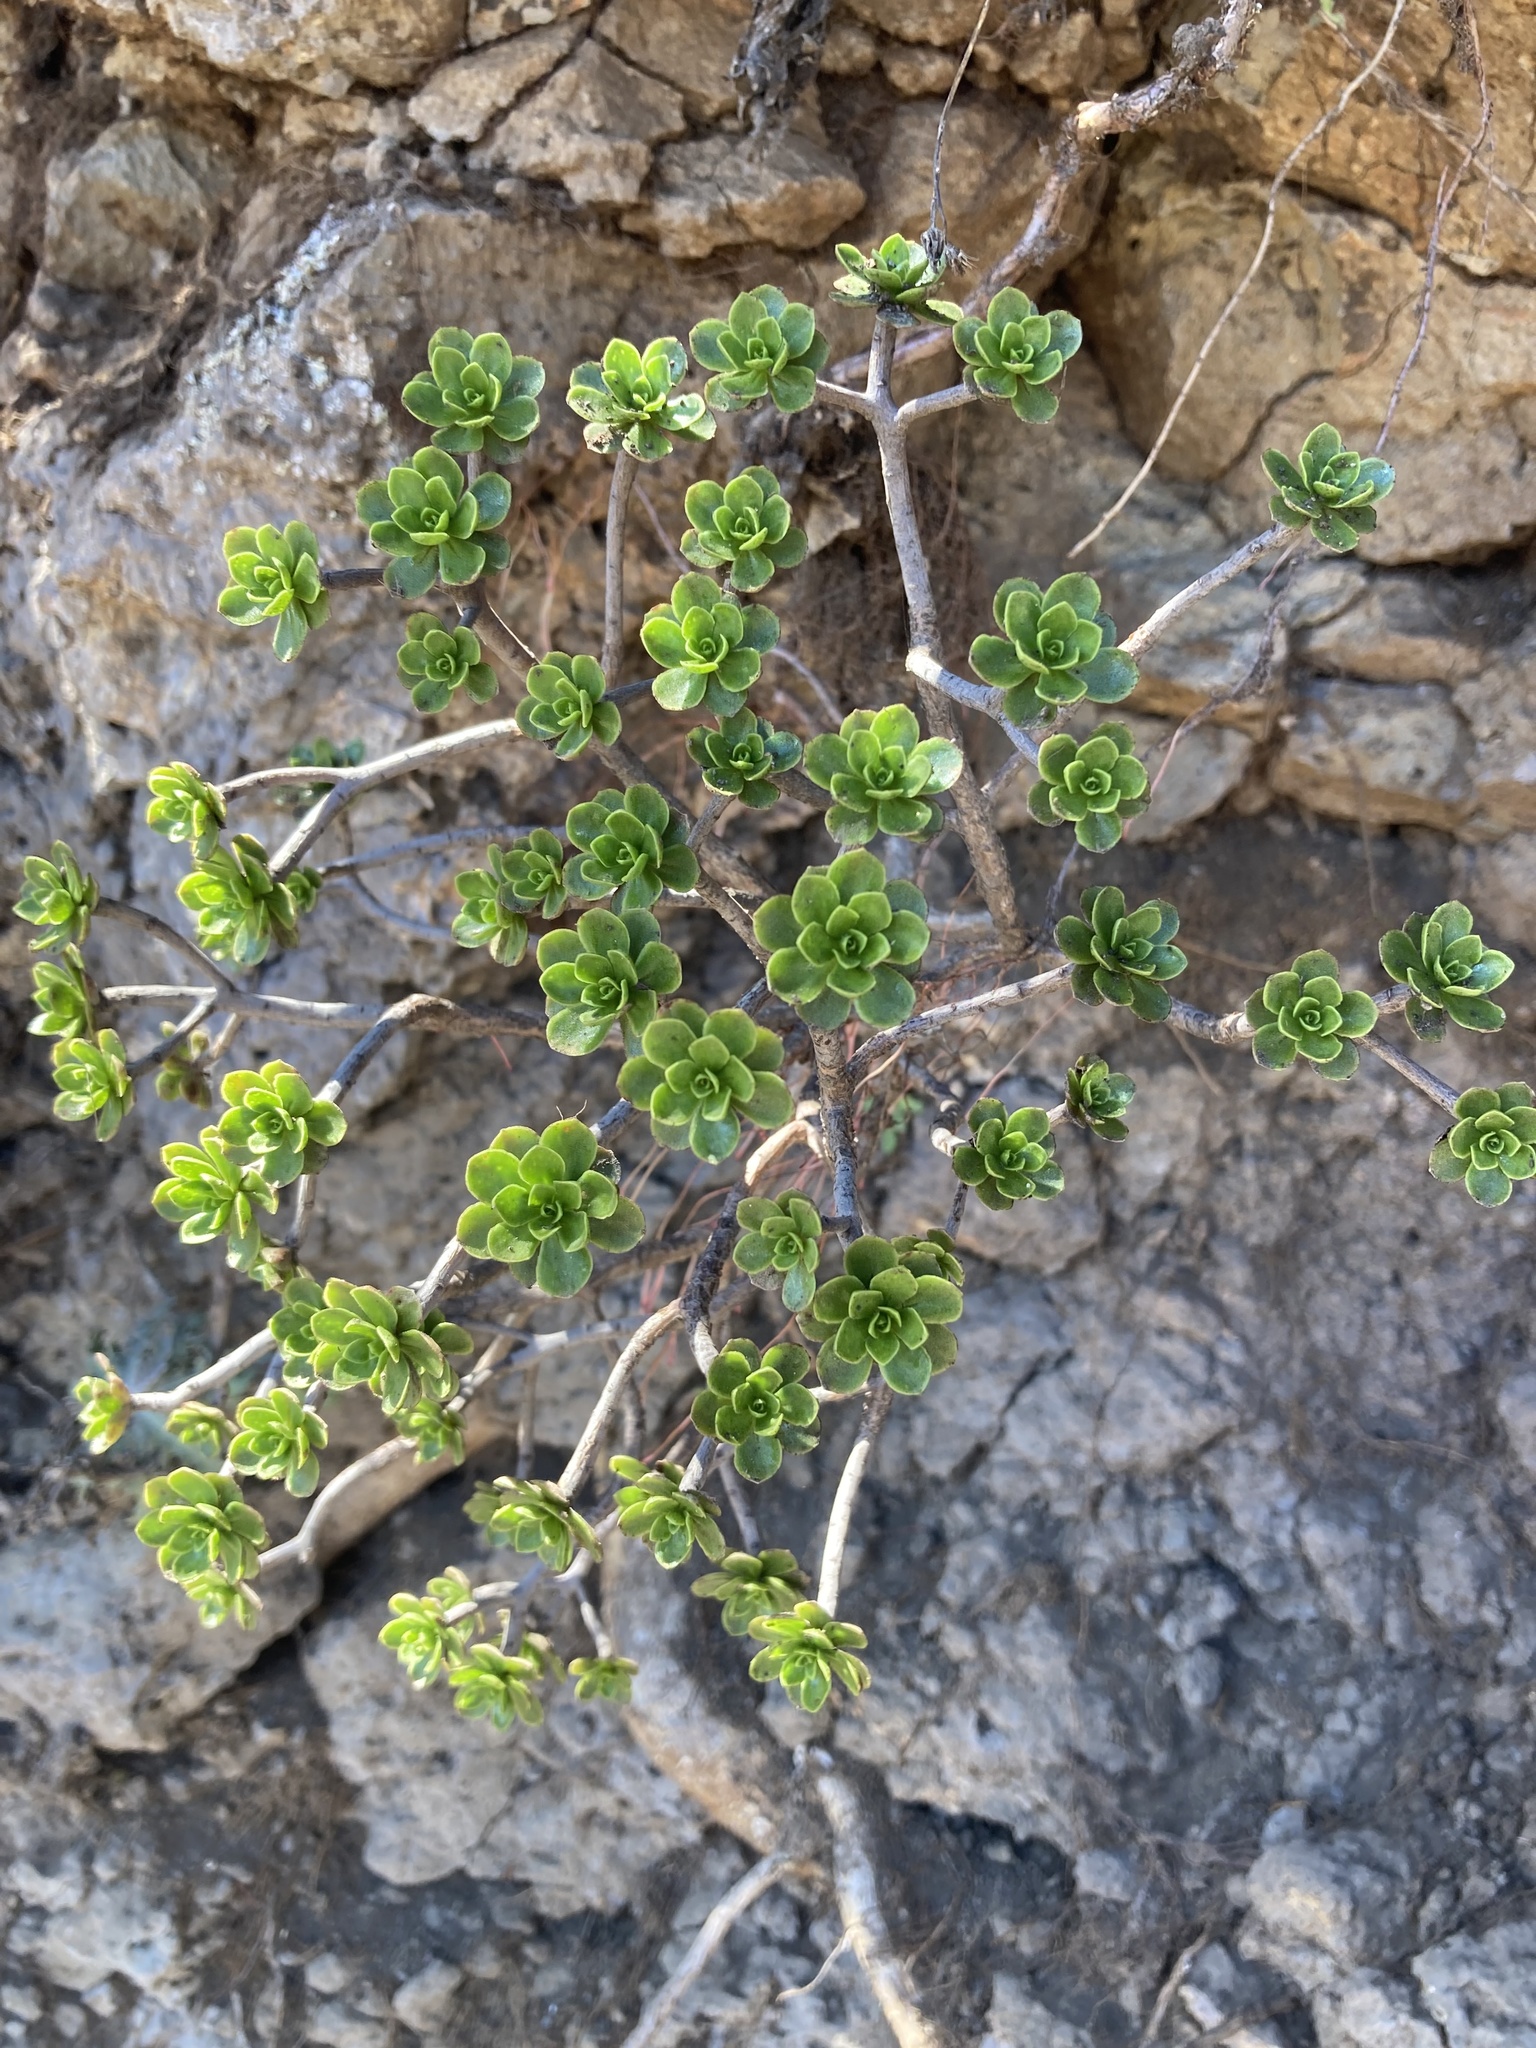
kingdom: Plantae
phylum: Tracheophyta
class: Magnoliopsida
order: Saxifragales
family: Crassulaceae
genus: Aeonium
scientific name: Aeonium spathulatum
